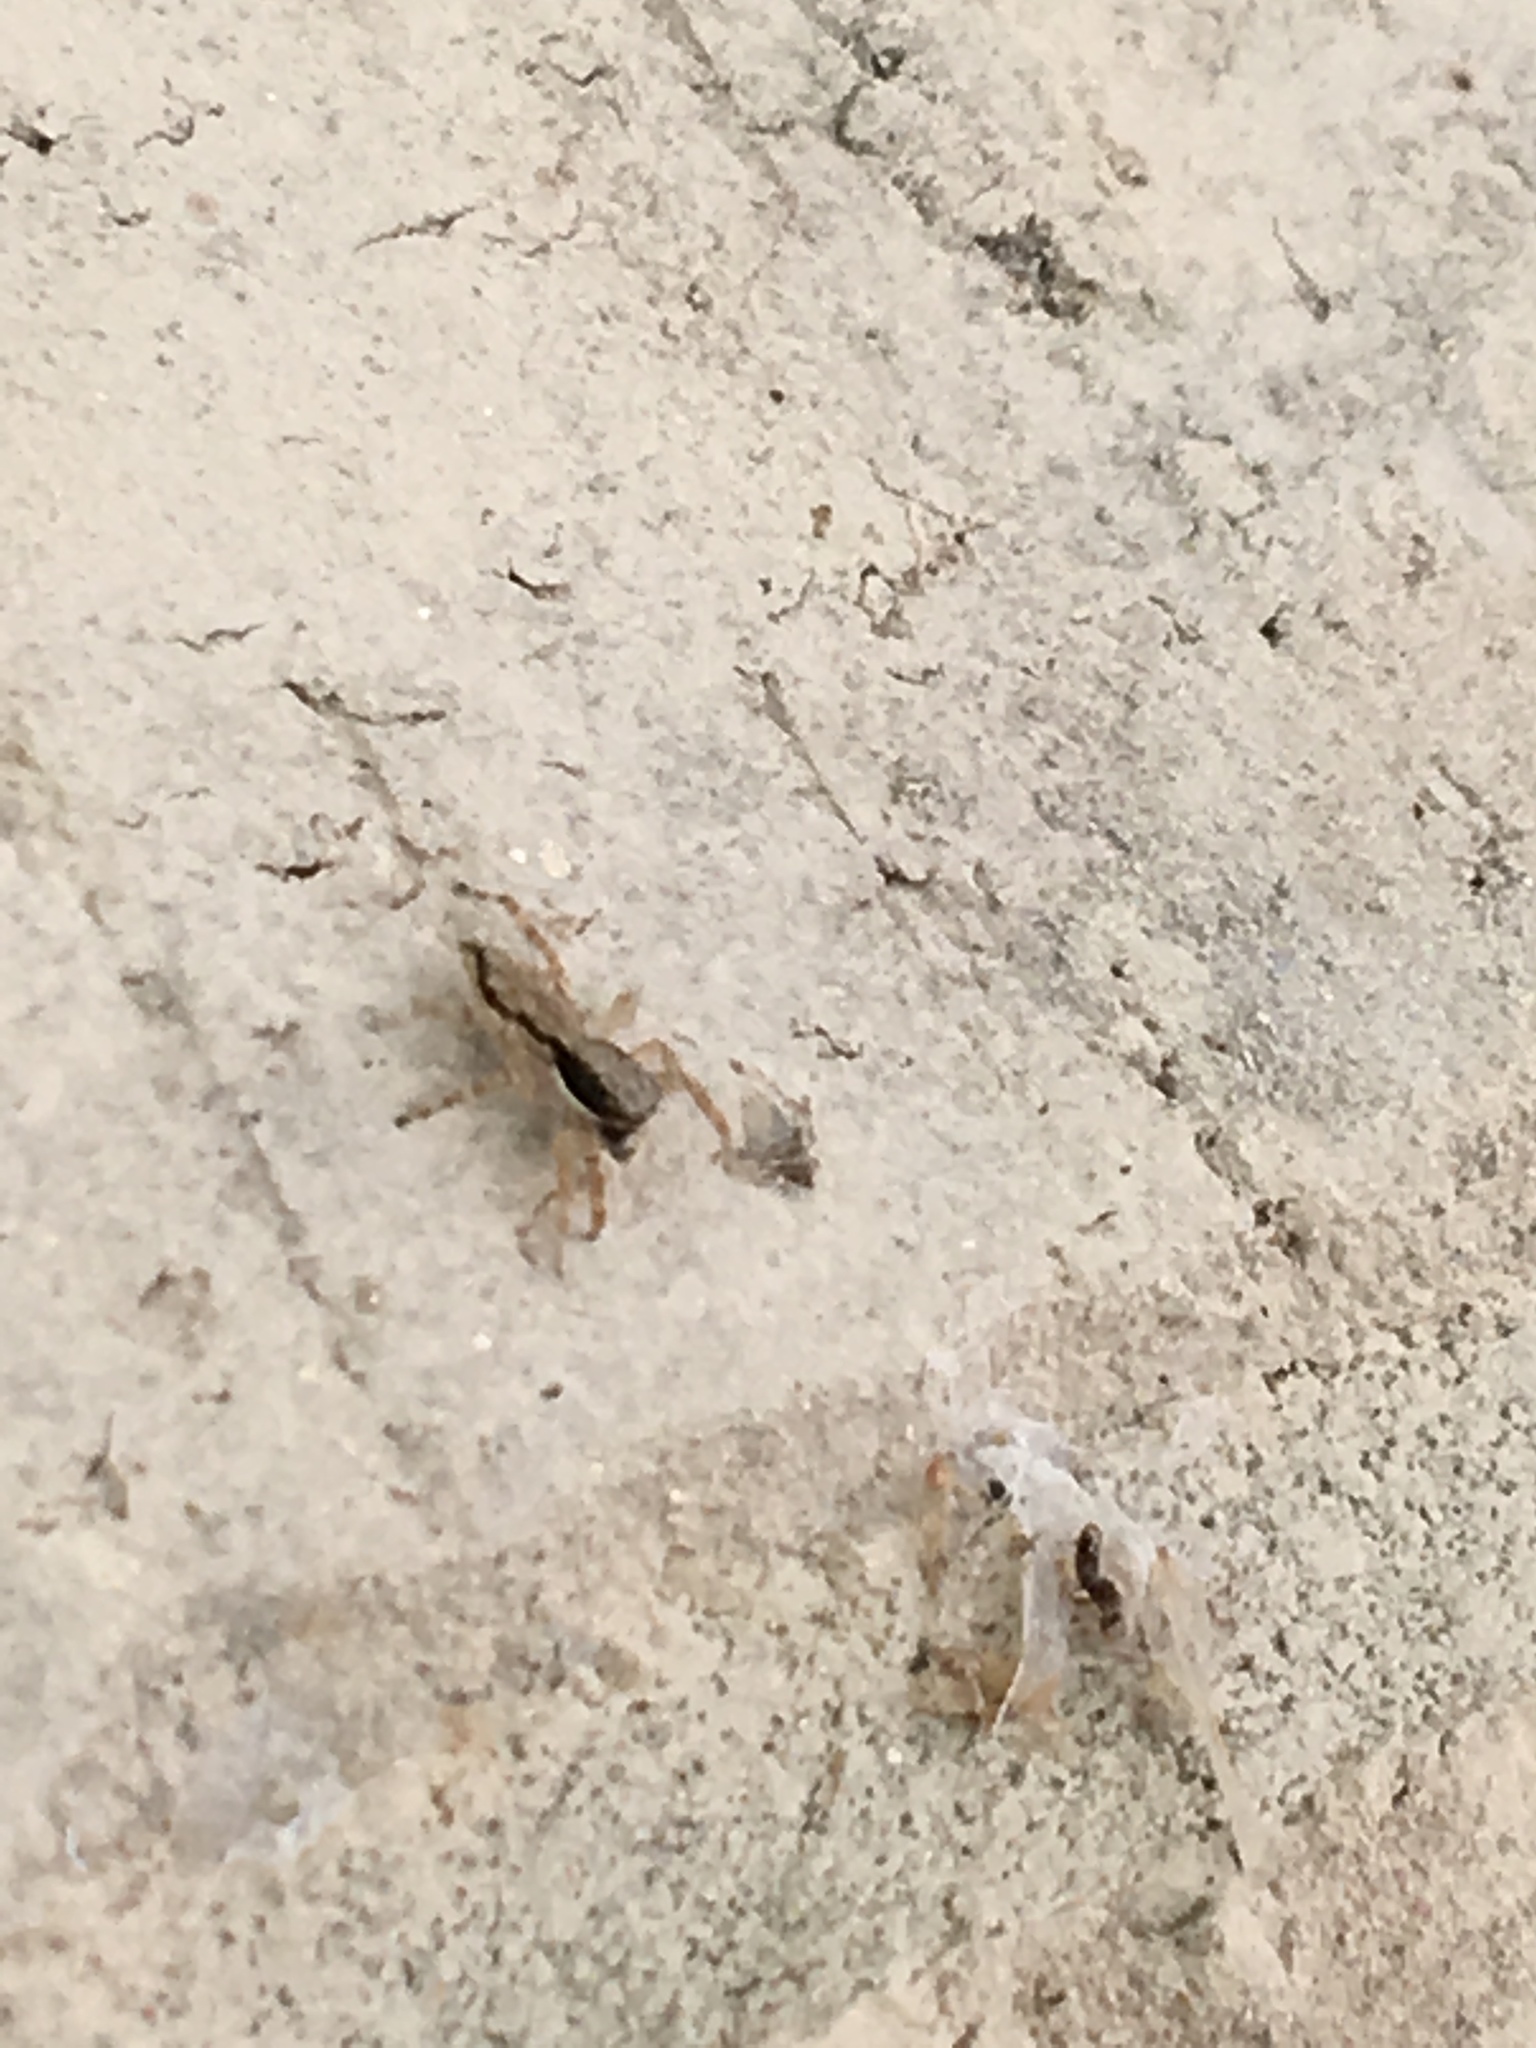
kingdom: Animalia
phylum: Arthropoda
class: Arachnida
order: Araneae
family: Salticidae
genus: Menemerus
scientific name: Menemerus bivittatus
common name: Gray wall jumper
